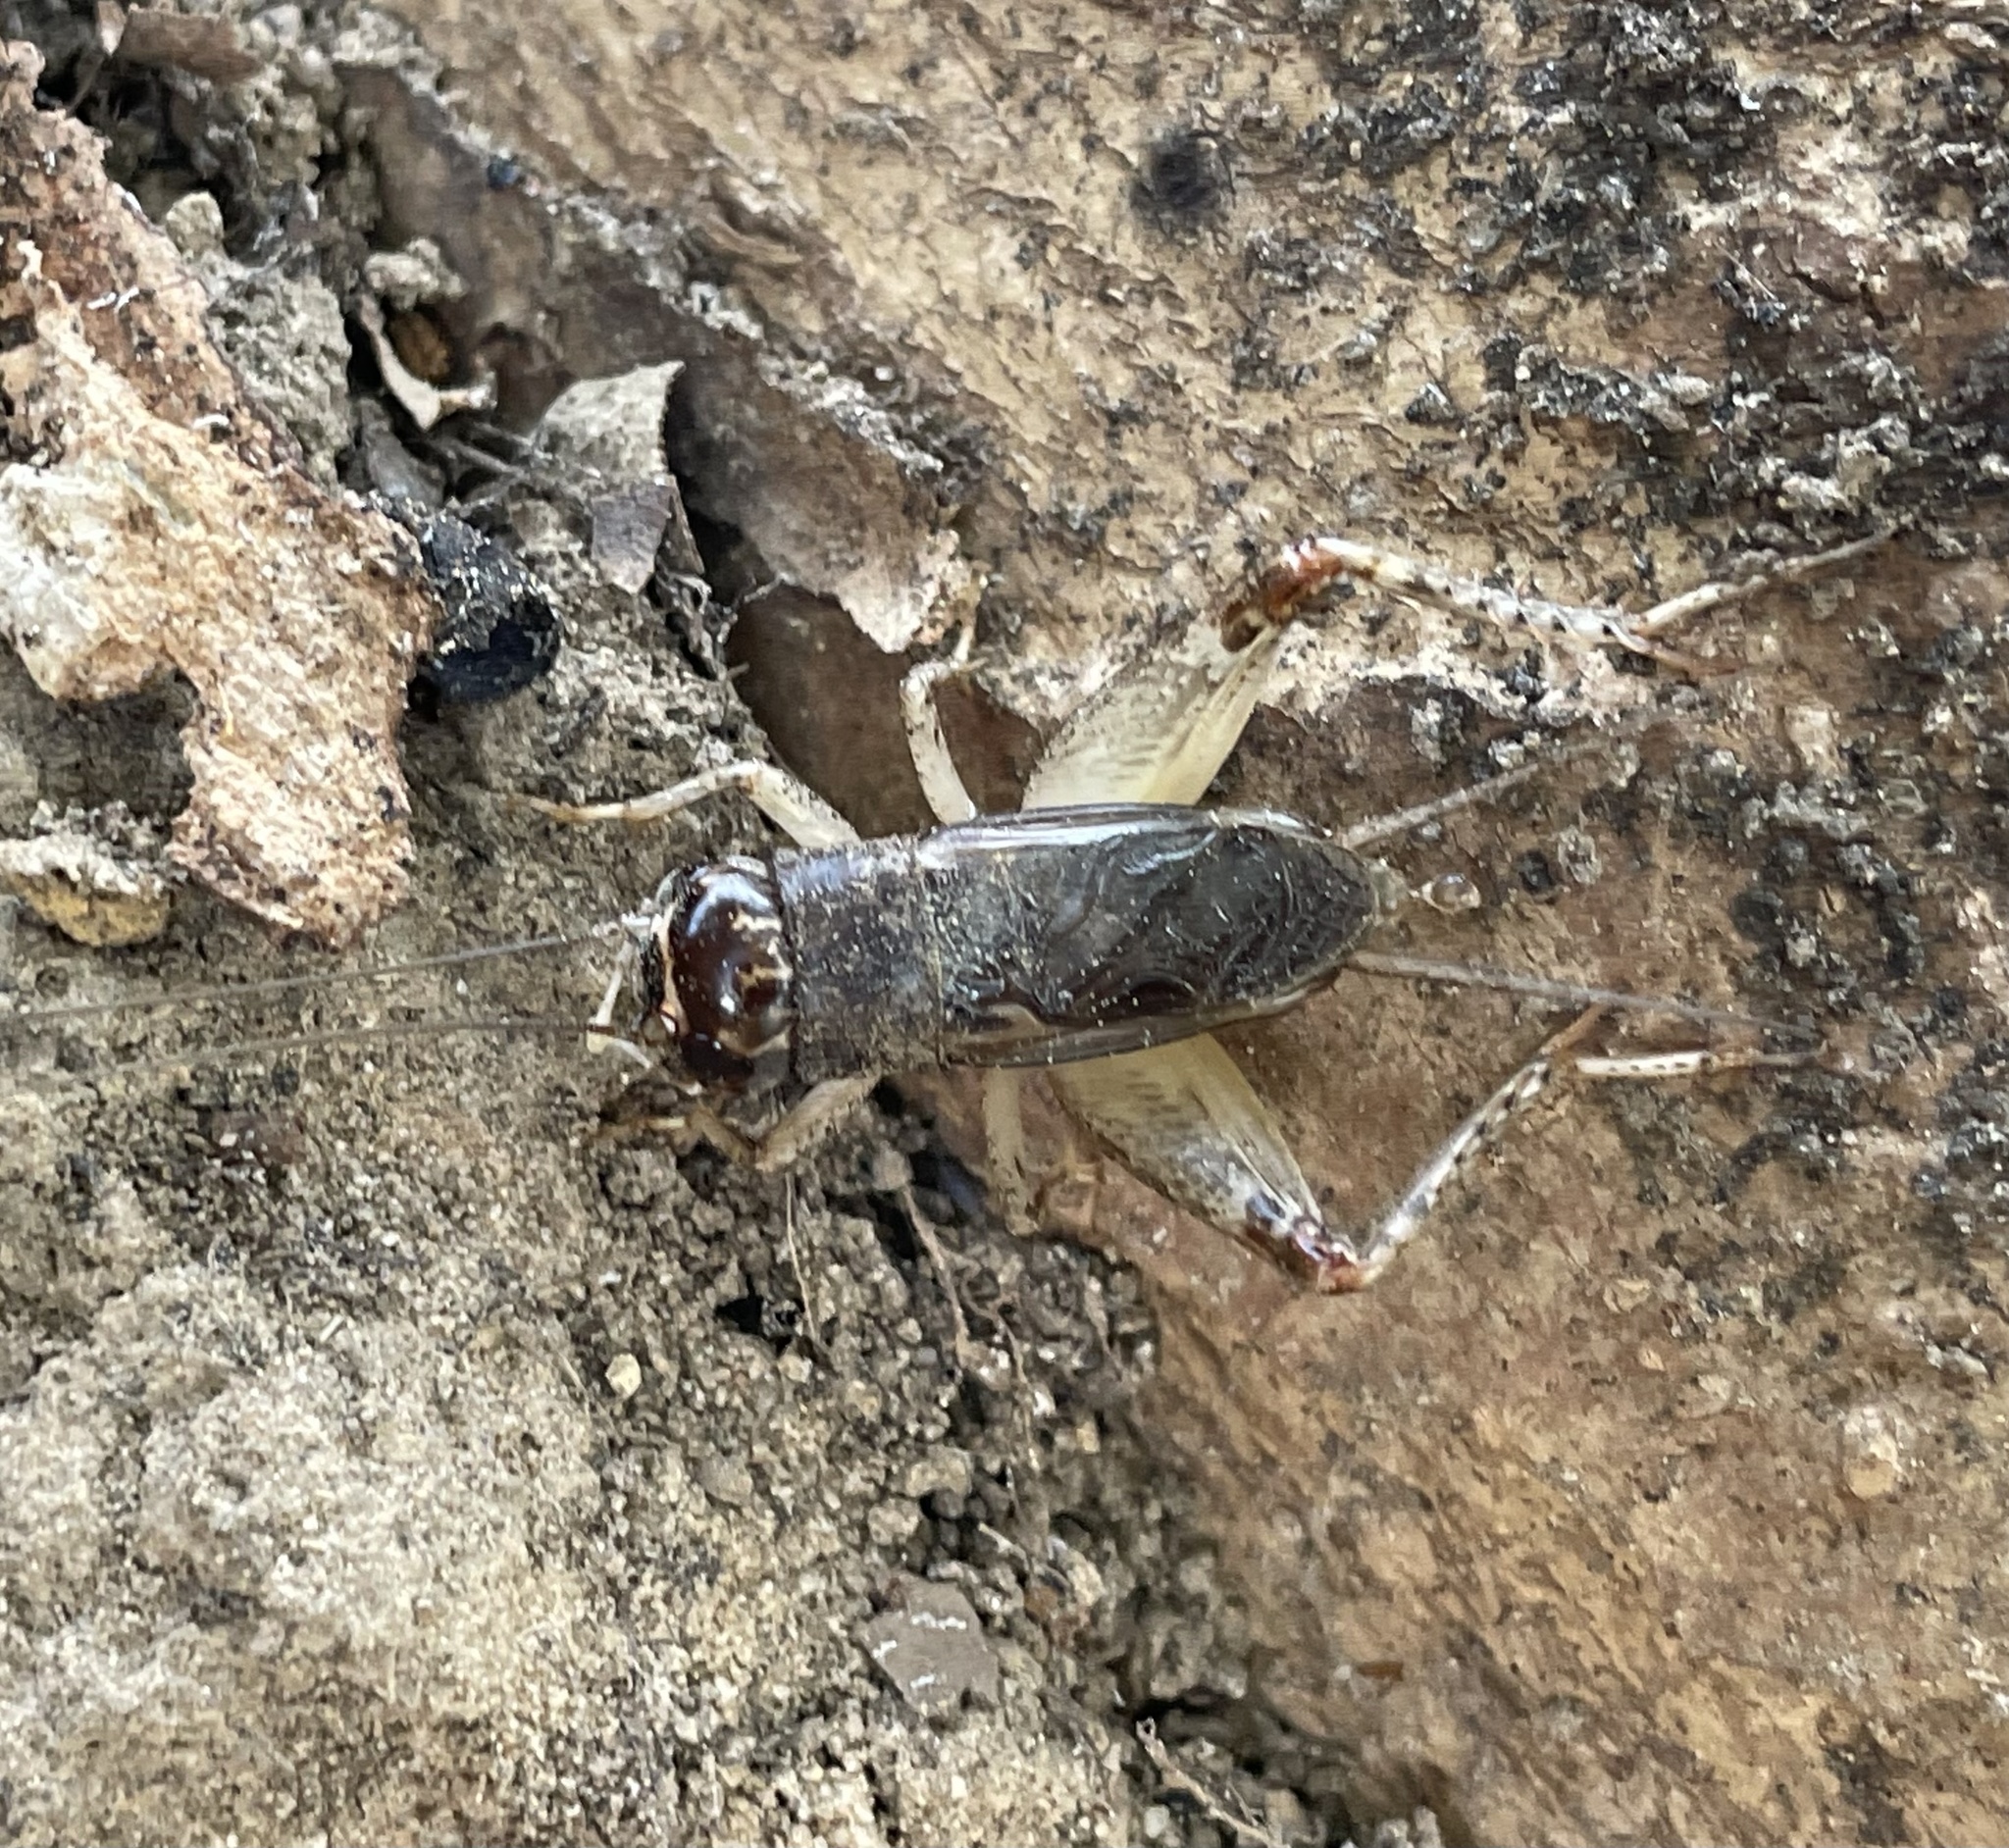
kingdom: Animalia
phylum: Arthropoda
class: Insecta
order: Orthoptera
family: Gryllidae
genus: Velarifictorus
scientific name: Velarifictorus micado
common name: Japanese burrowing cricket
